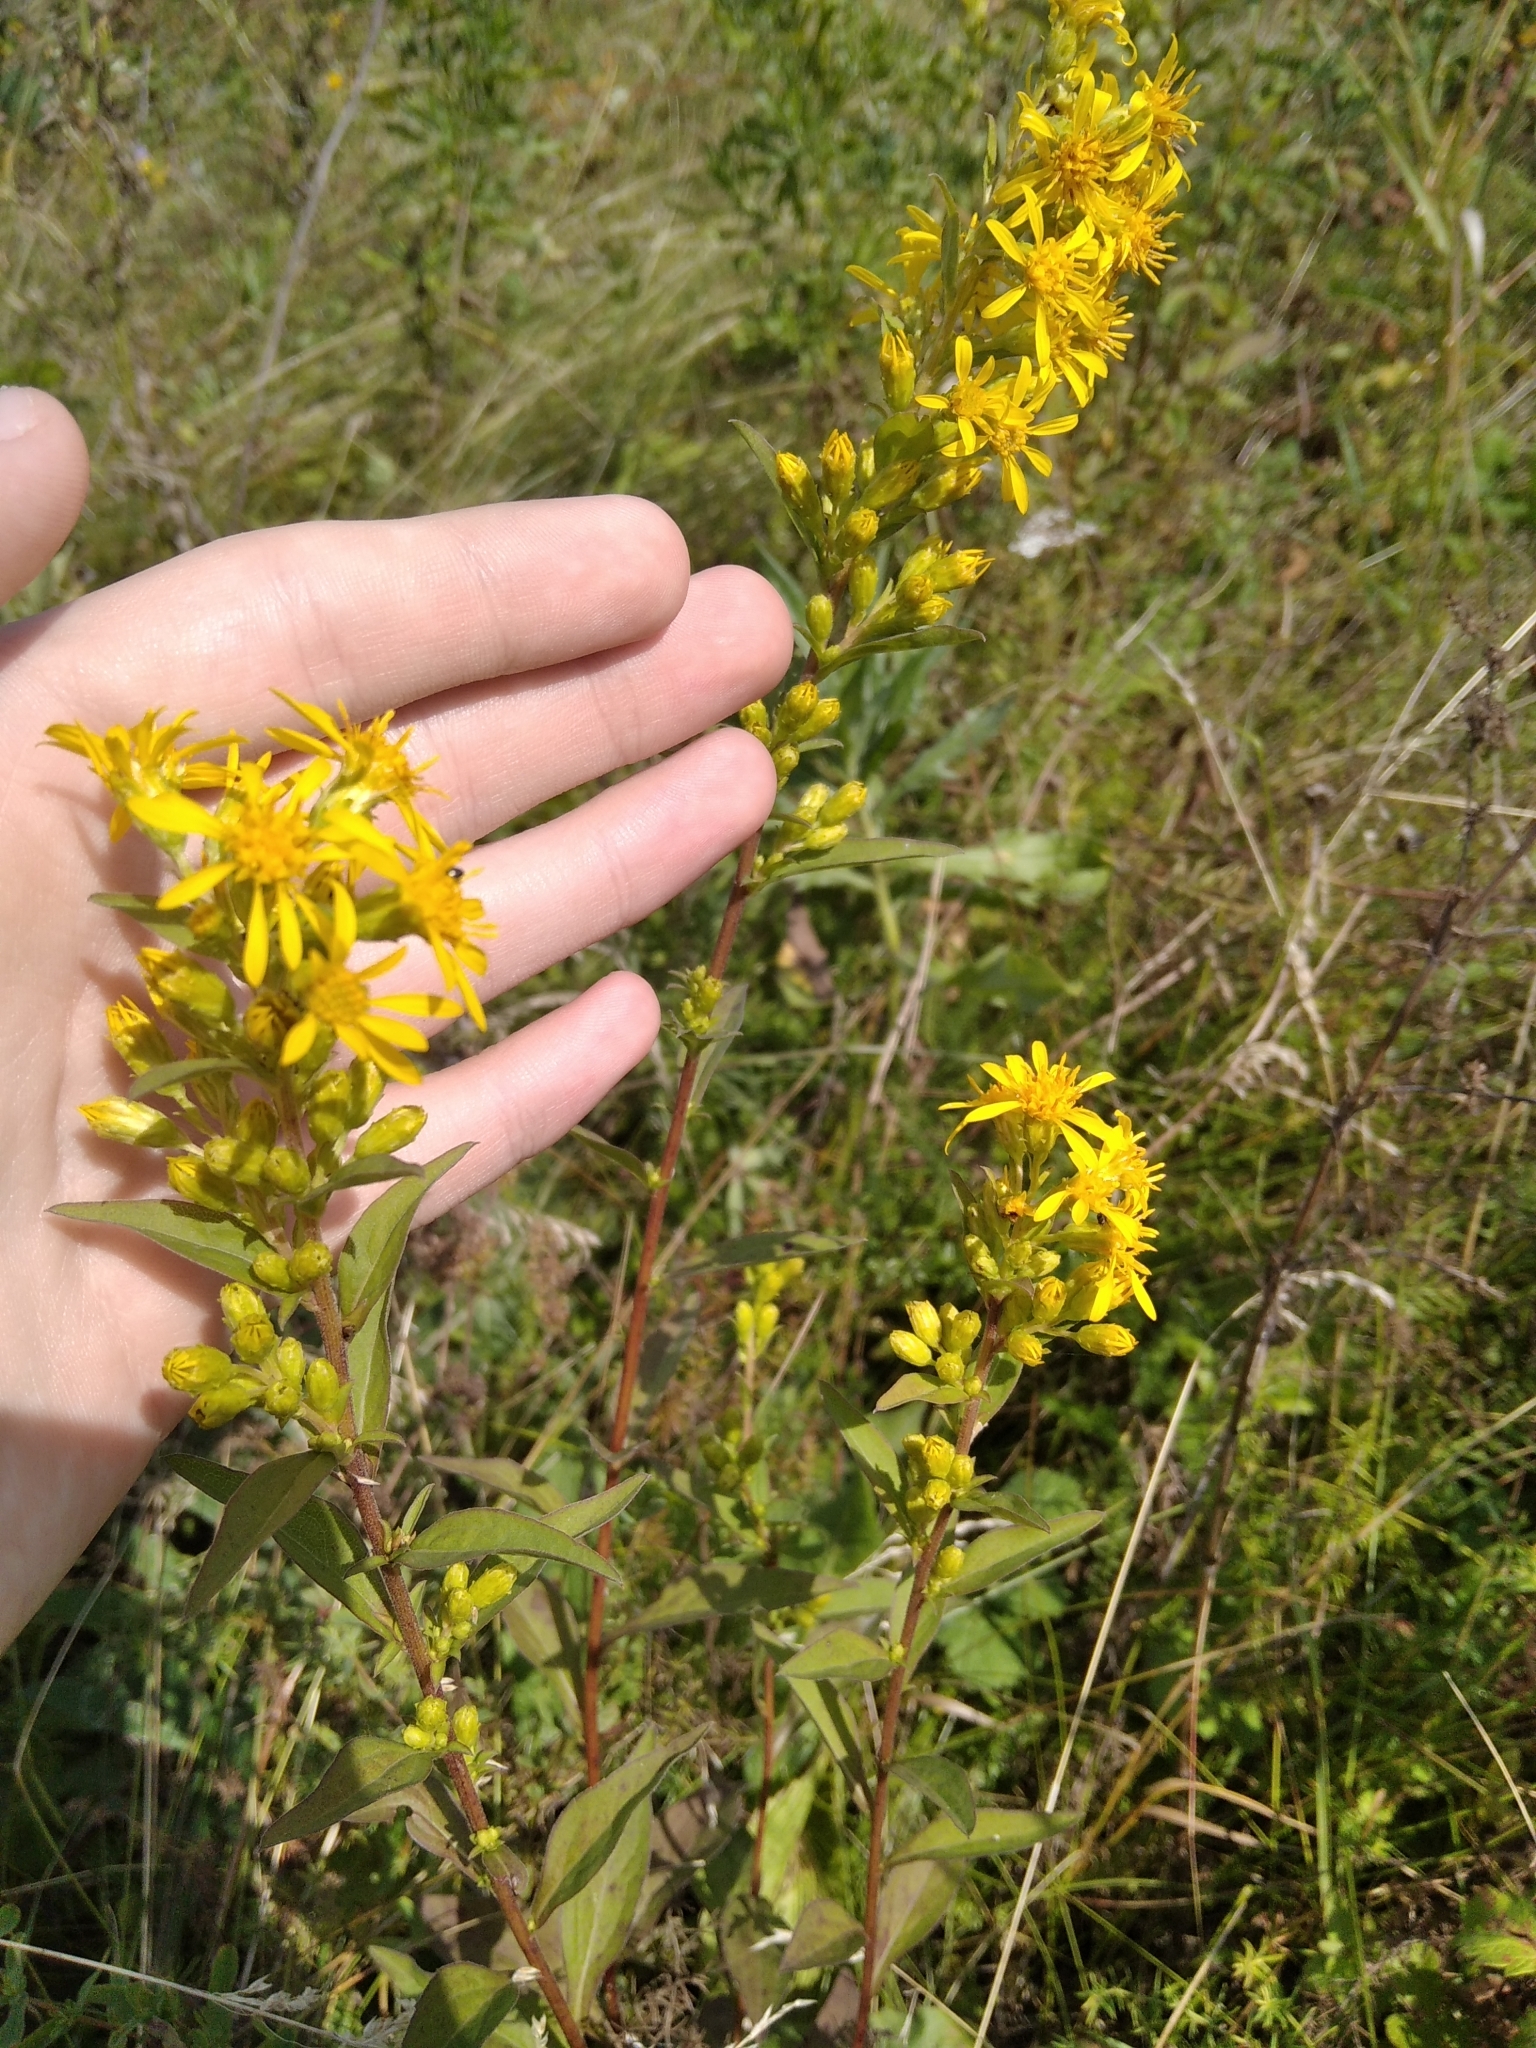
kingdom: Plantae
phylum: Tracheophyta
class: Magnoliopsida
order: Asterales
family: Asteraceae
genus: Solidago
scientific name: Solidago virgaurea
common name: Goldenrod
